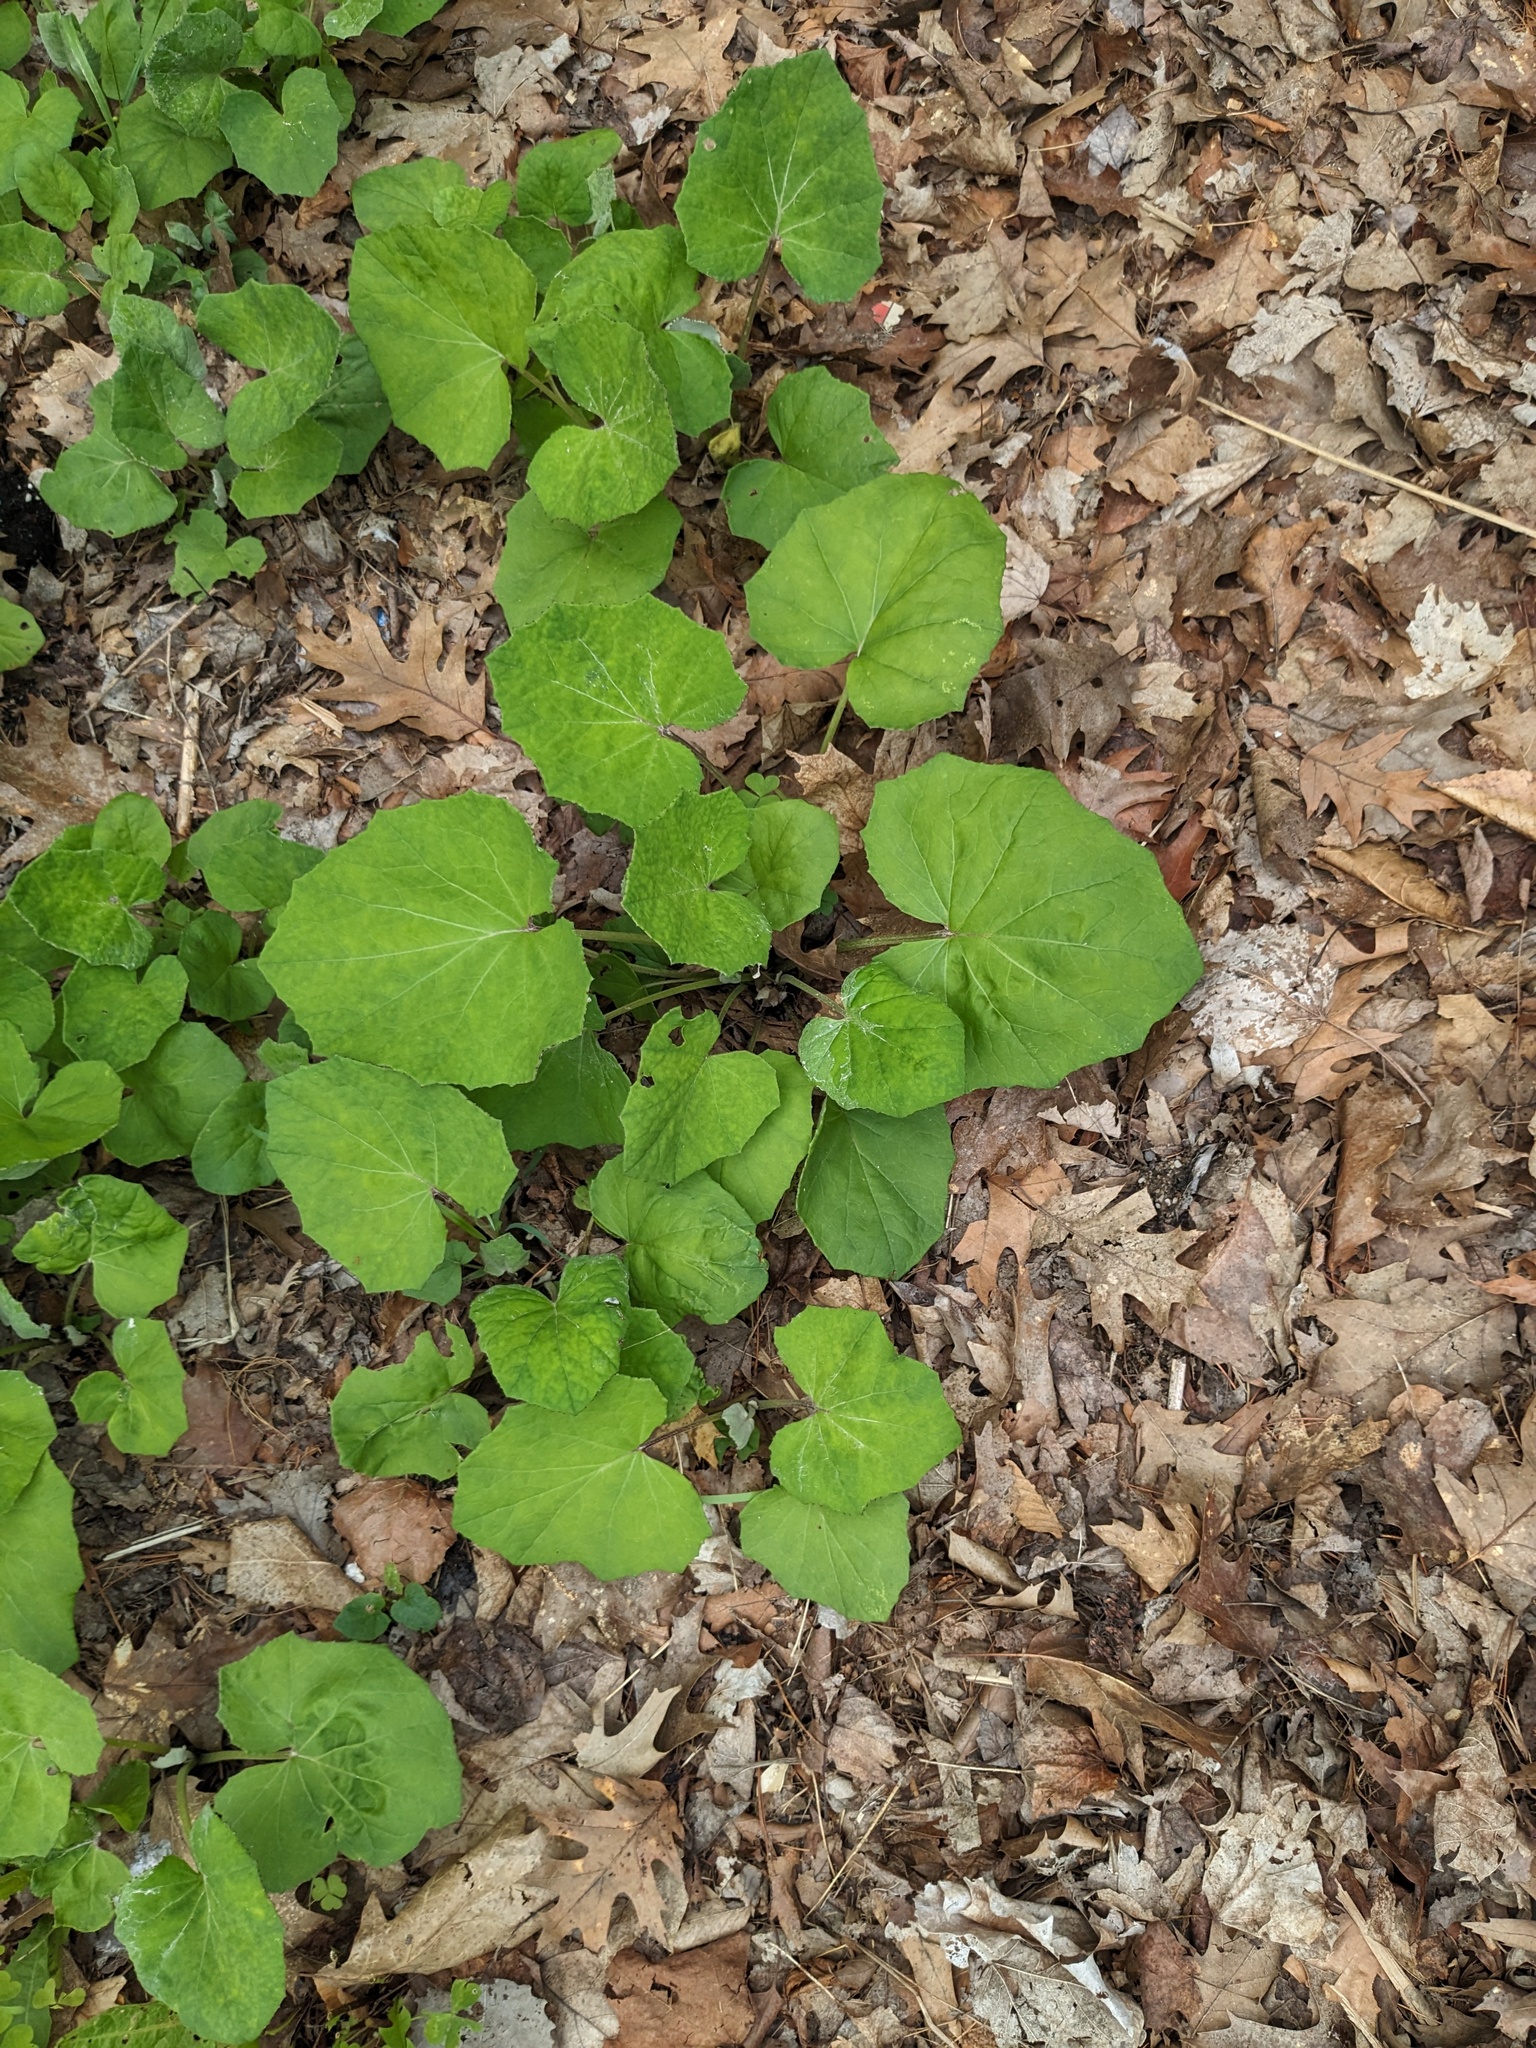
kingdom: Plantae
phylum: Tracheophyta
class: Magnoliopsida
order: Asterales
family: Asteraceae
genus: Tussilago
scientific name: Tussilago farfara
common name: Coltsfoot
